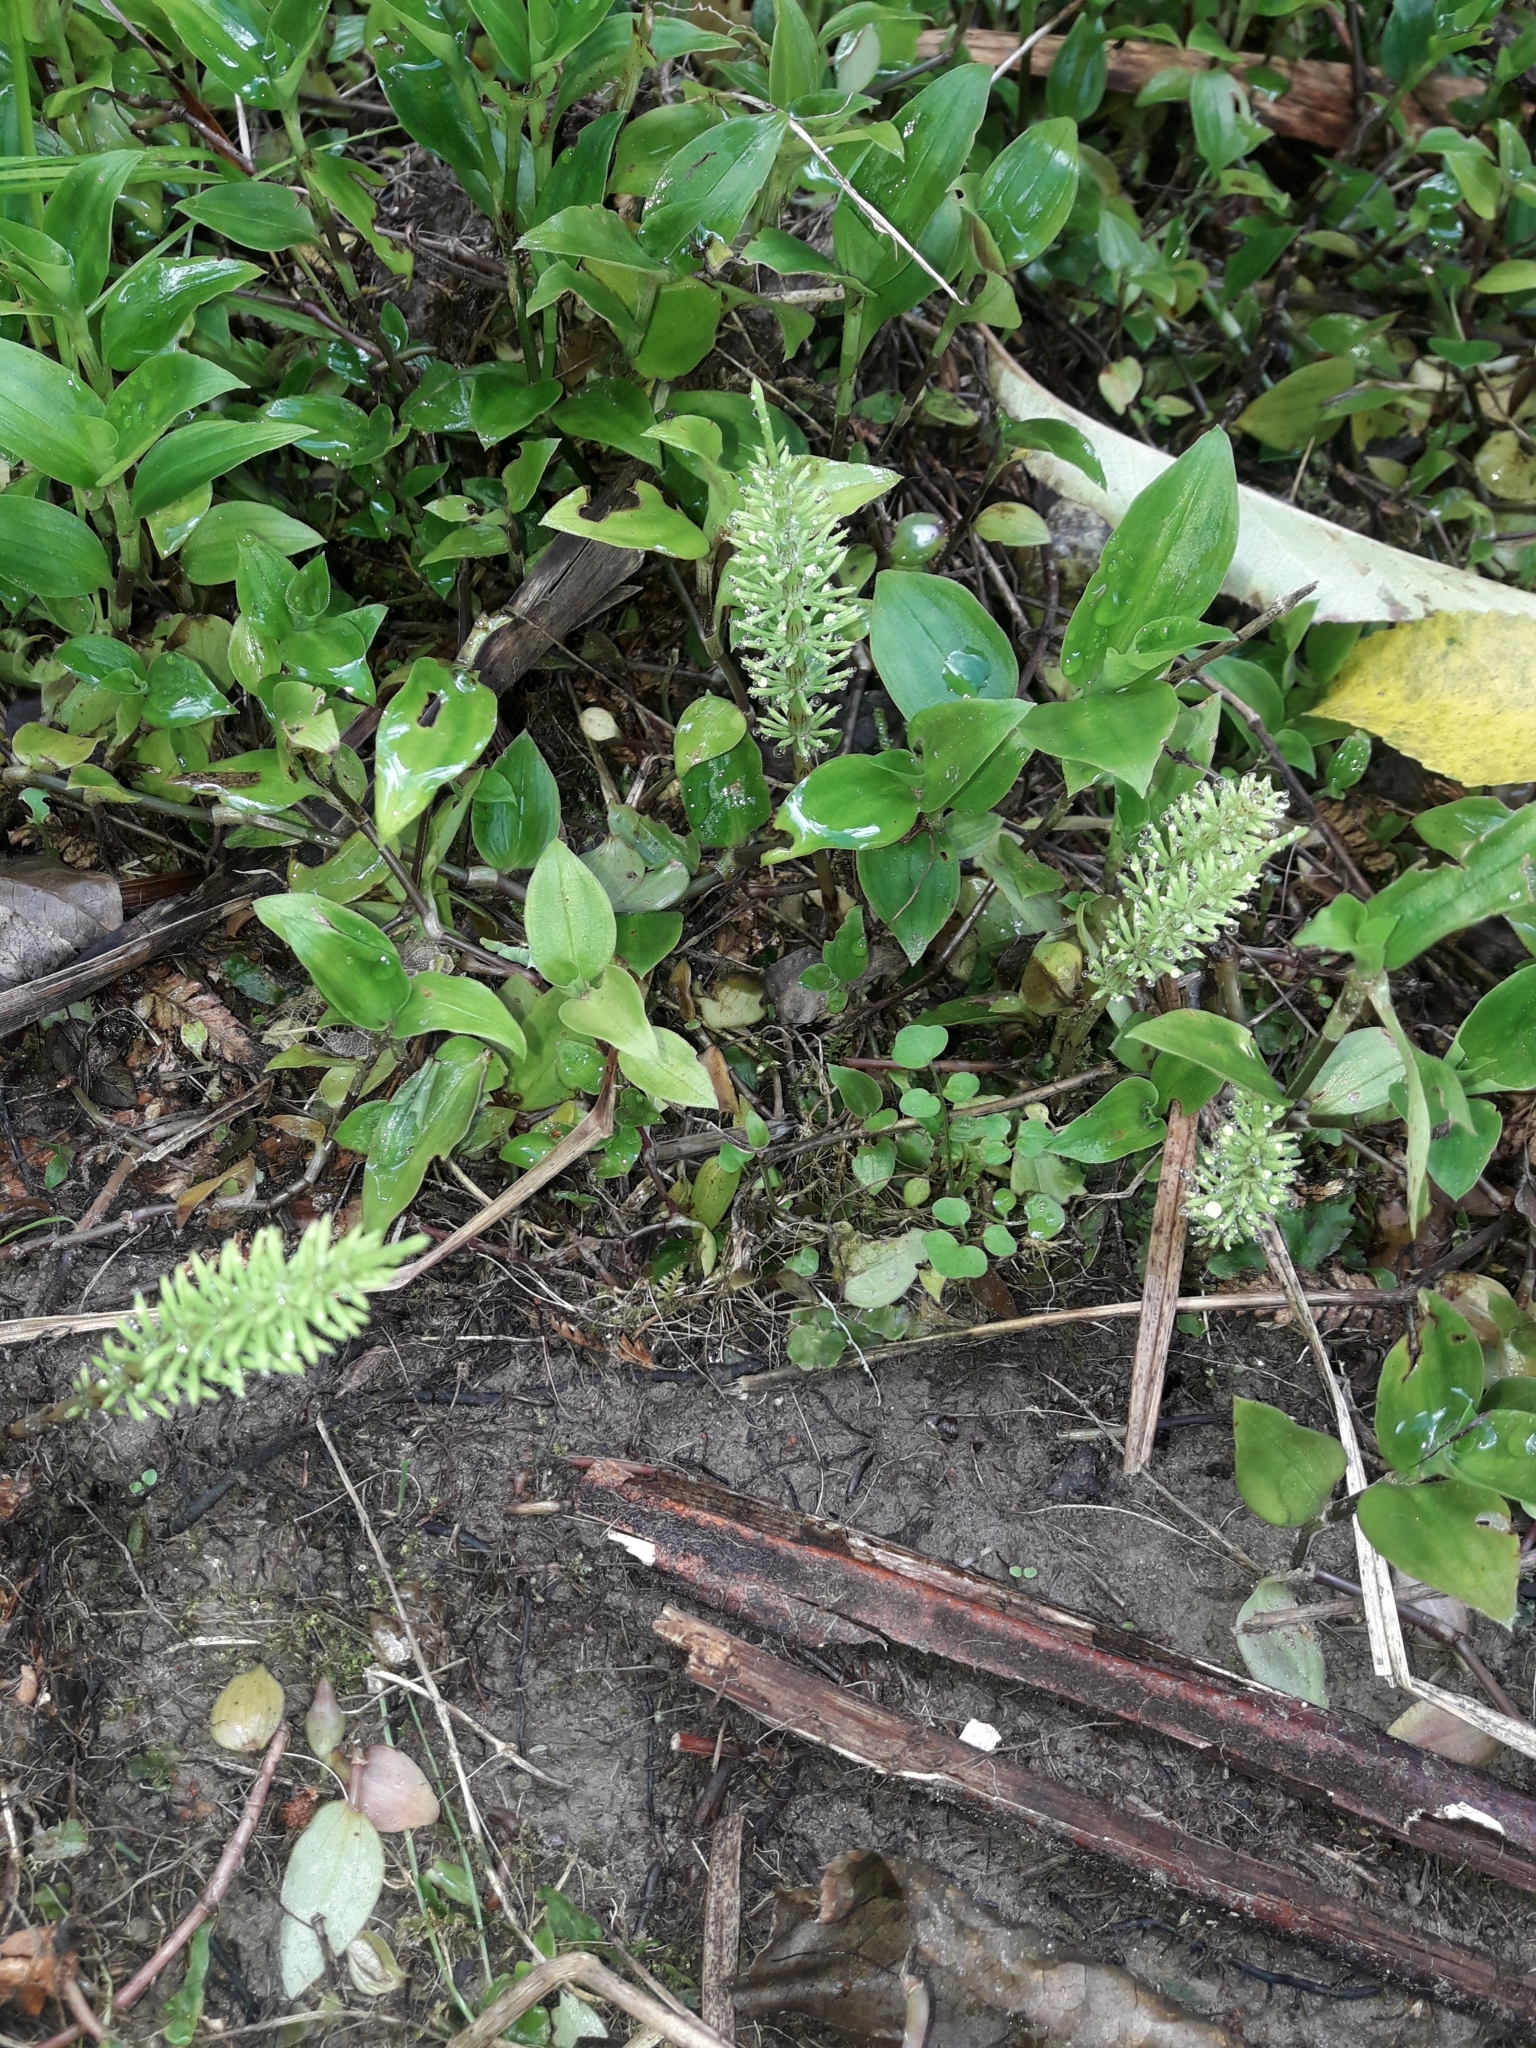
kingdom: Plantae
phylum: Tracheophyta
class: Polypodiopsida
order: Equisetales
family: Equisetaceae
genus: Equisetum
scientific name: Equisetum arvense
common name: Field horsetail
